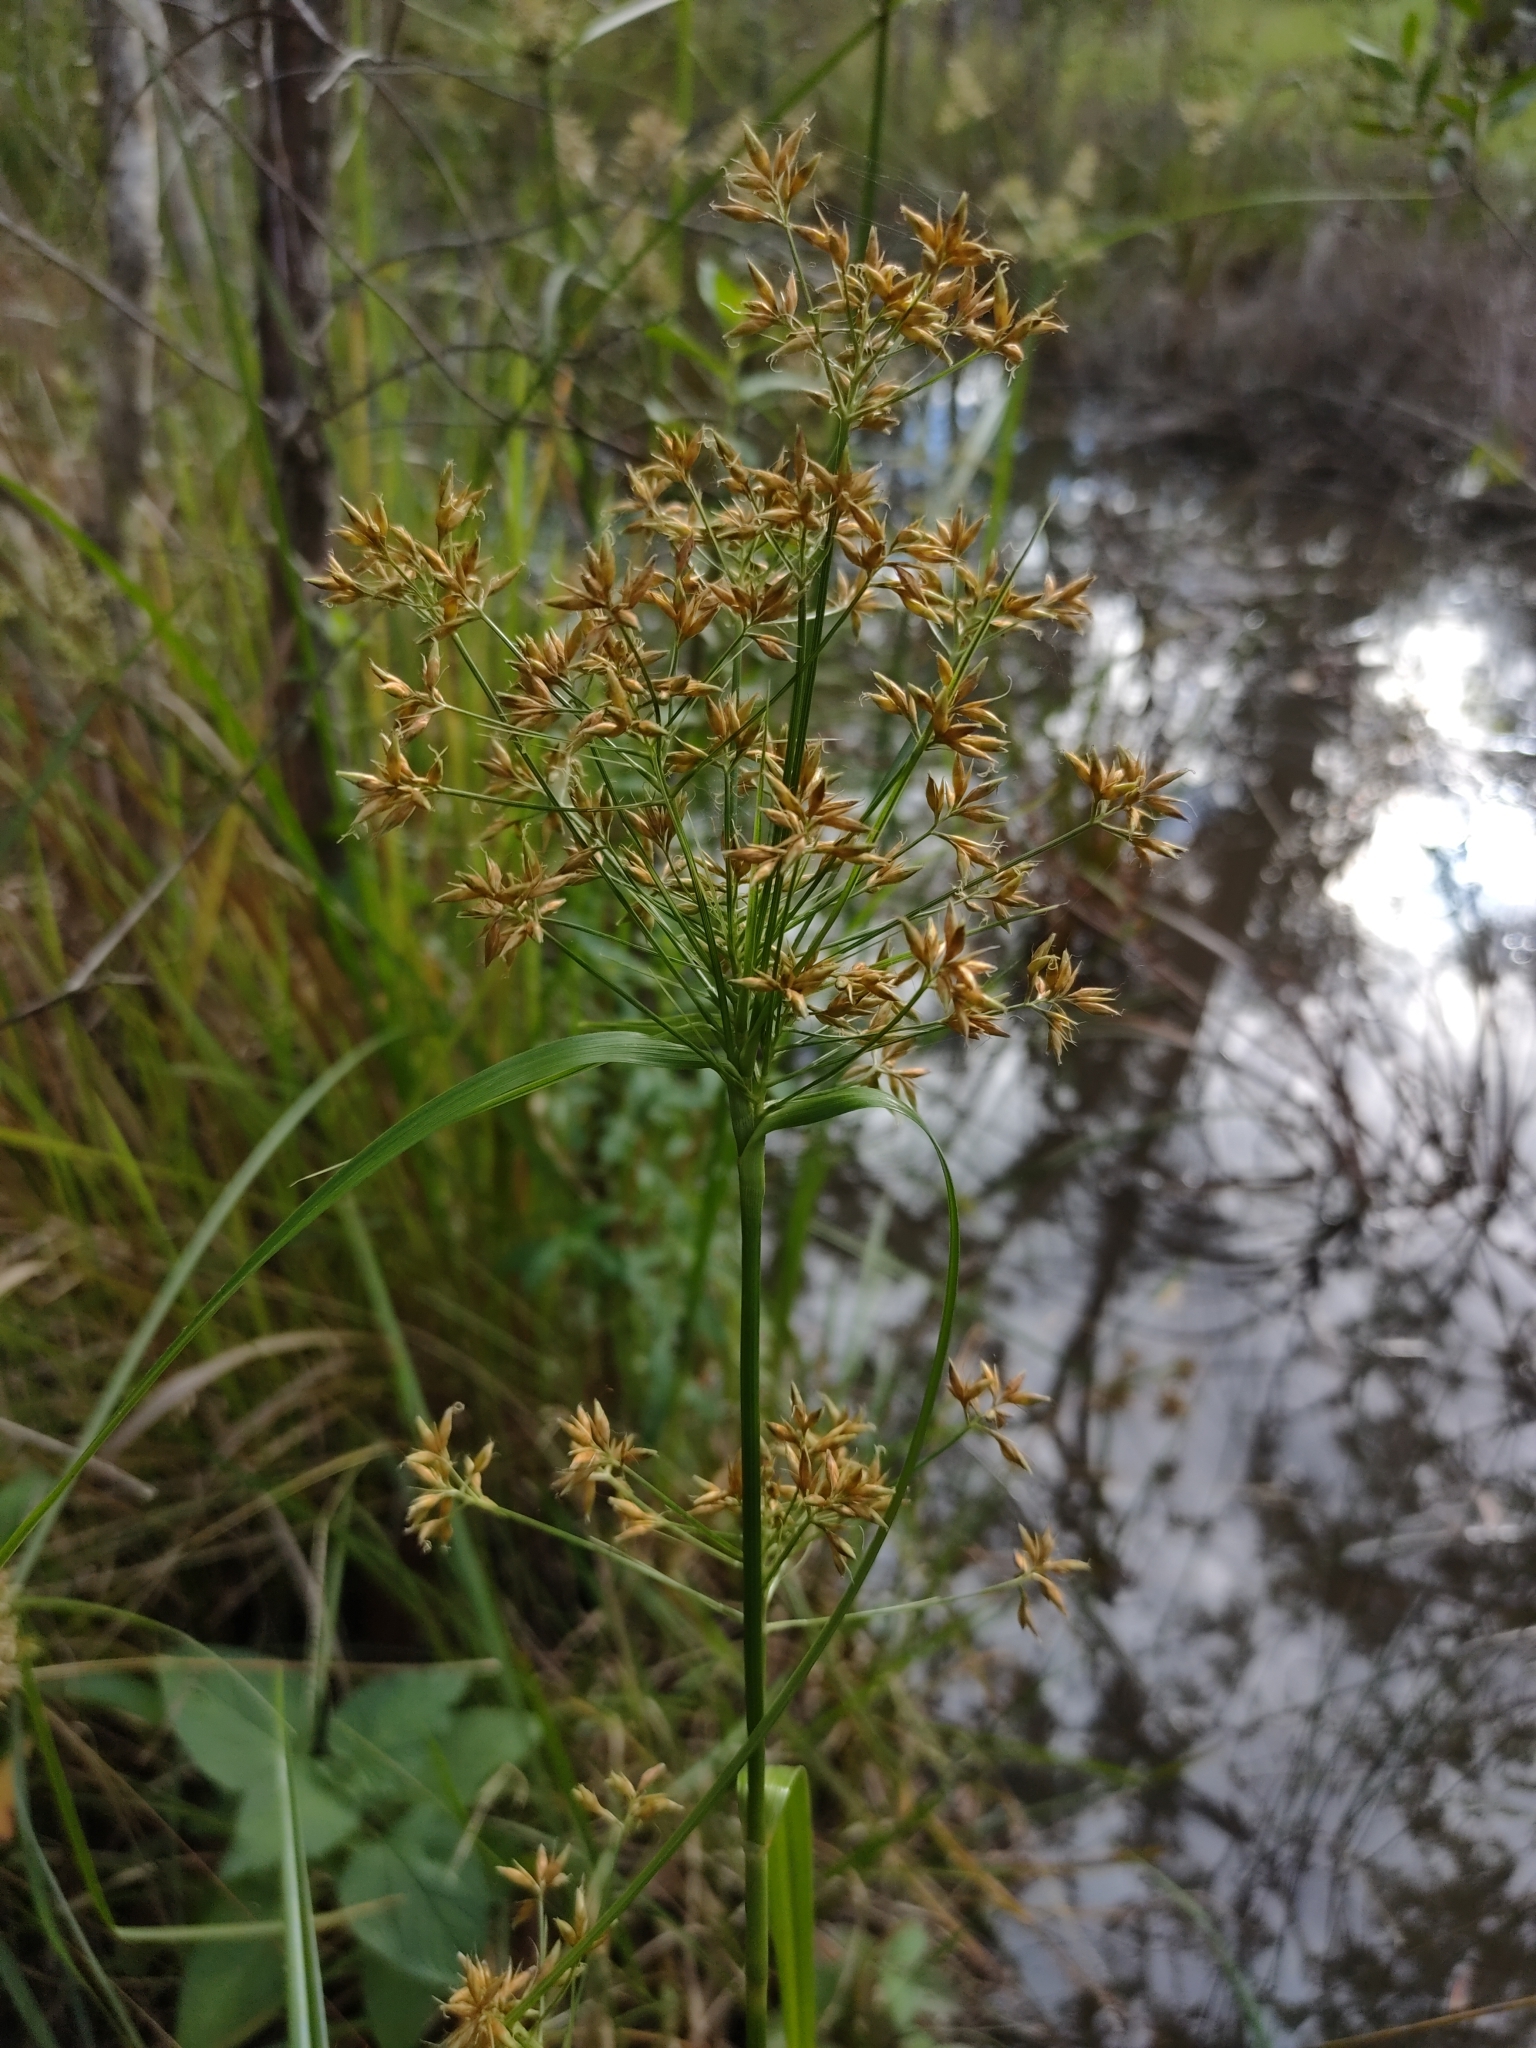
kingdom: Plantae
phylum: Tracheophyta
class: Liliopsida
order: Poales
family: Cyperaceae
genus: Rhynchospora
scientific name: Rhynchospora corymbosa
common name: Golden beak sedge
